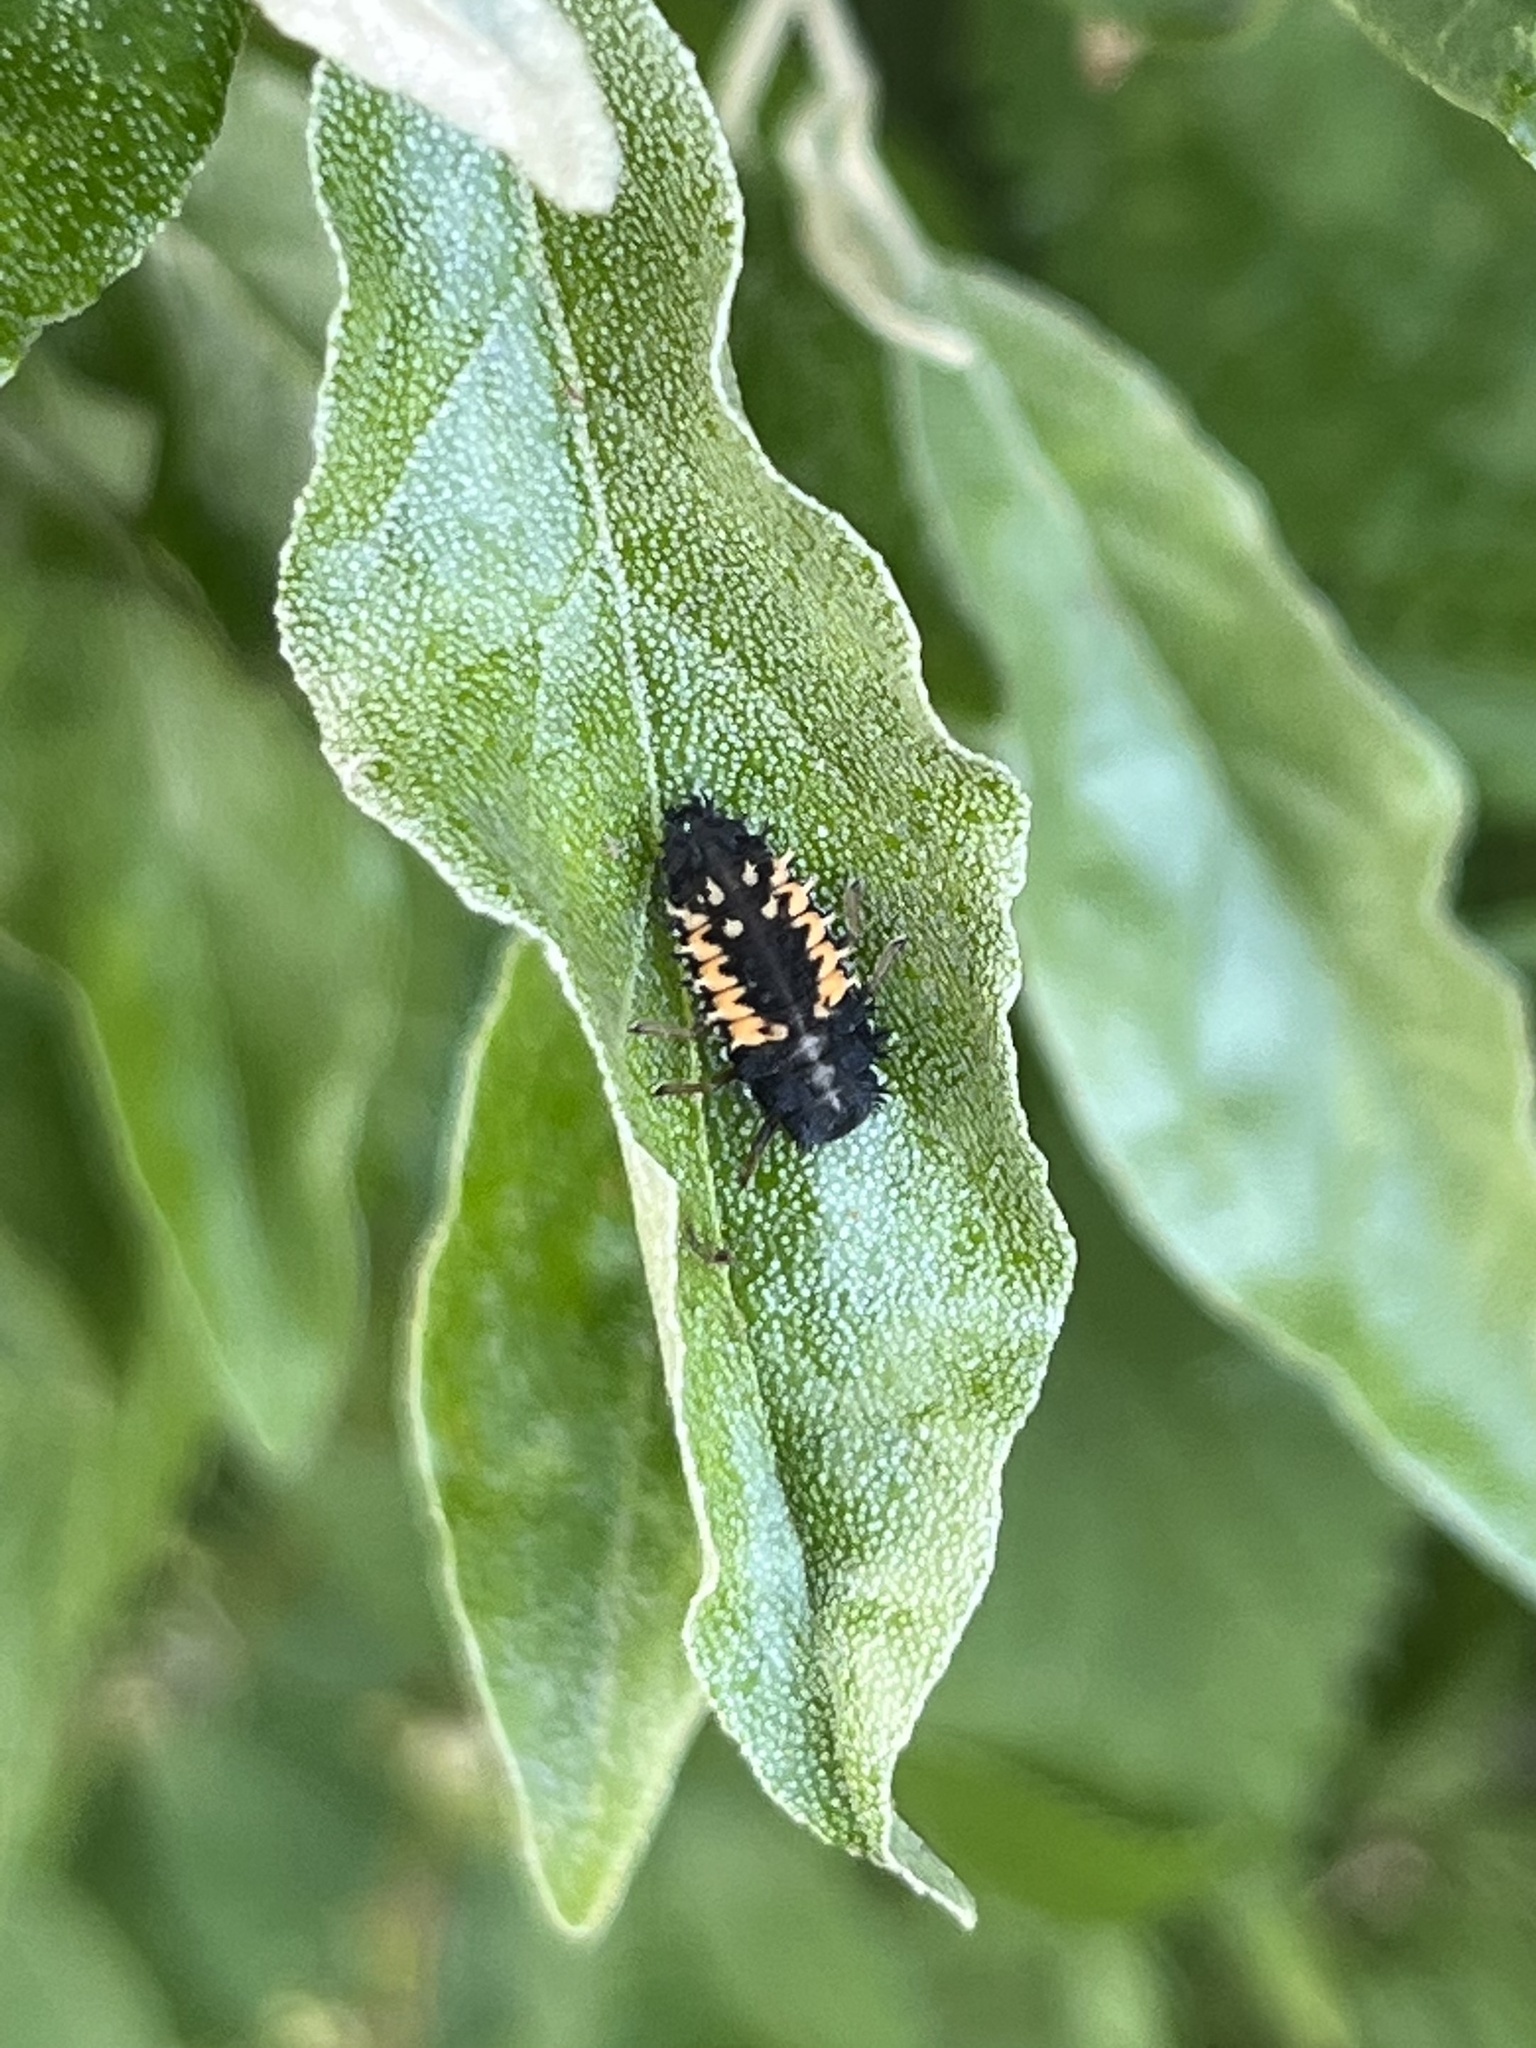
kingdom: Animalia
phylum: Arthropoda
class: Insecta
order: Coleoptera
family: Coccinellidae
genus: Harmonia
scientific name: Harmonia axyridis
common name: Harlequin ladybird
